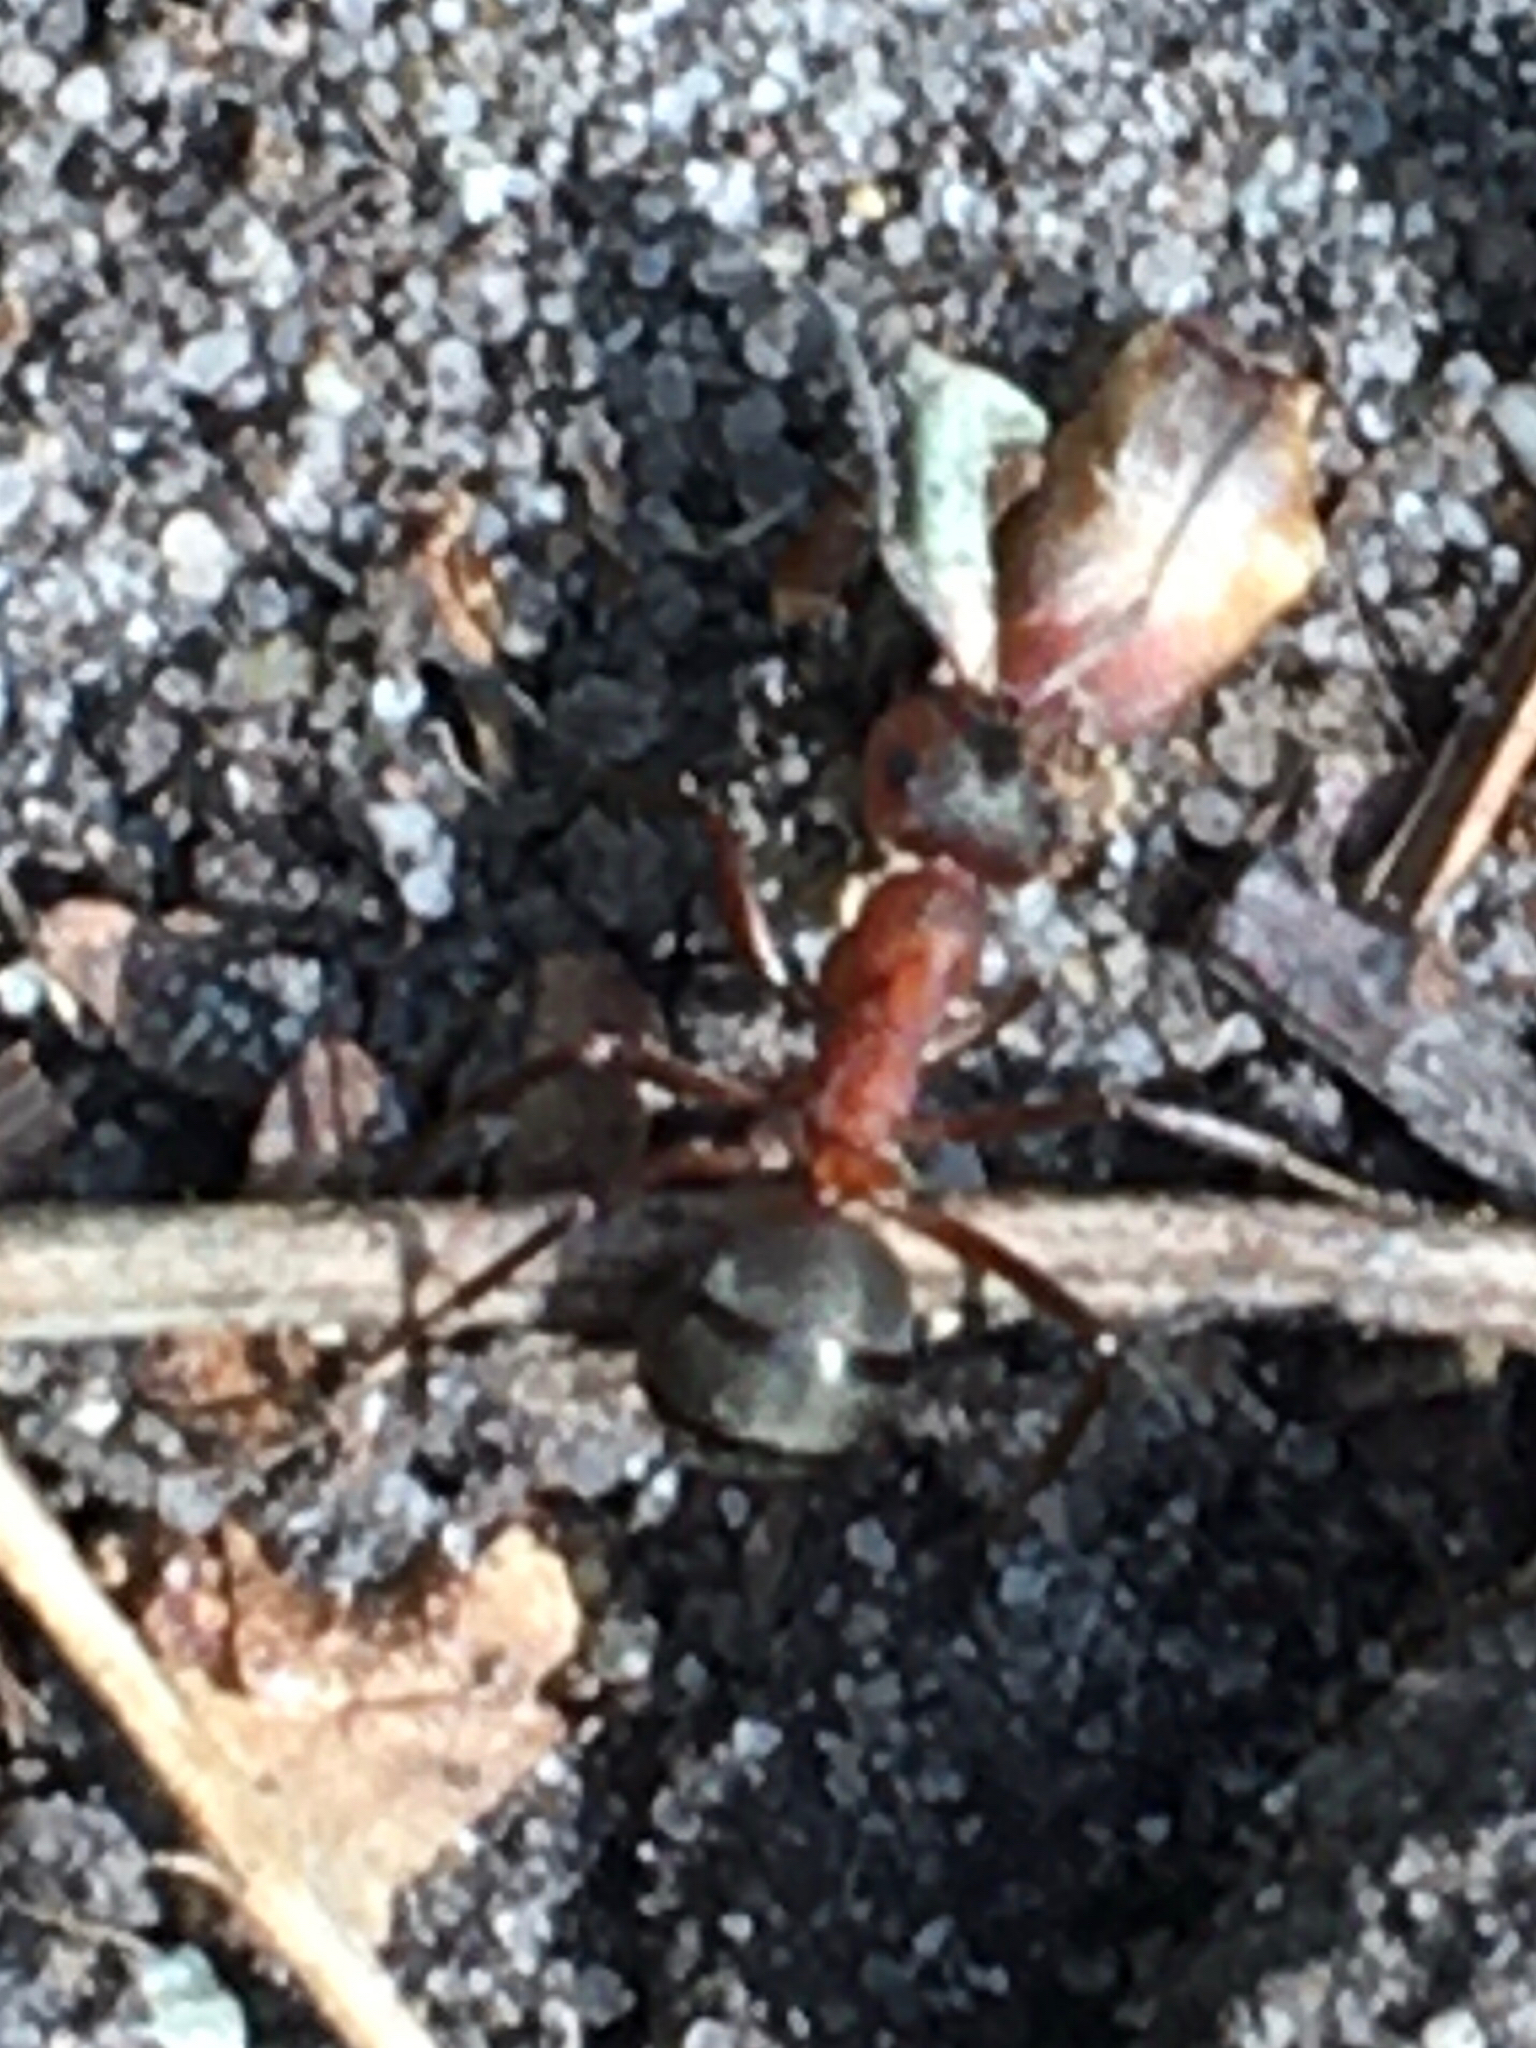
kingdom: Animalia
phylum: Arthropoda
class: Insecta
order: Hymenoptera
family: Formicidae
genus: Formica
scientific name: Formica rufa
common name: Red wood ant
